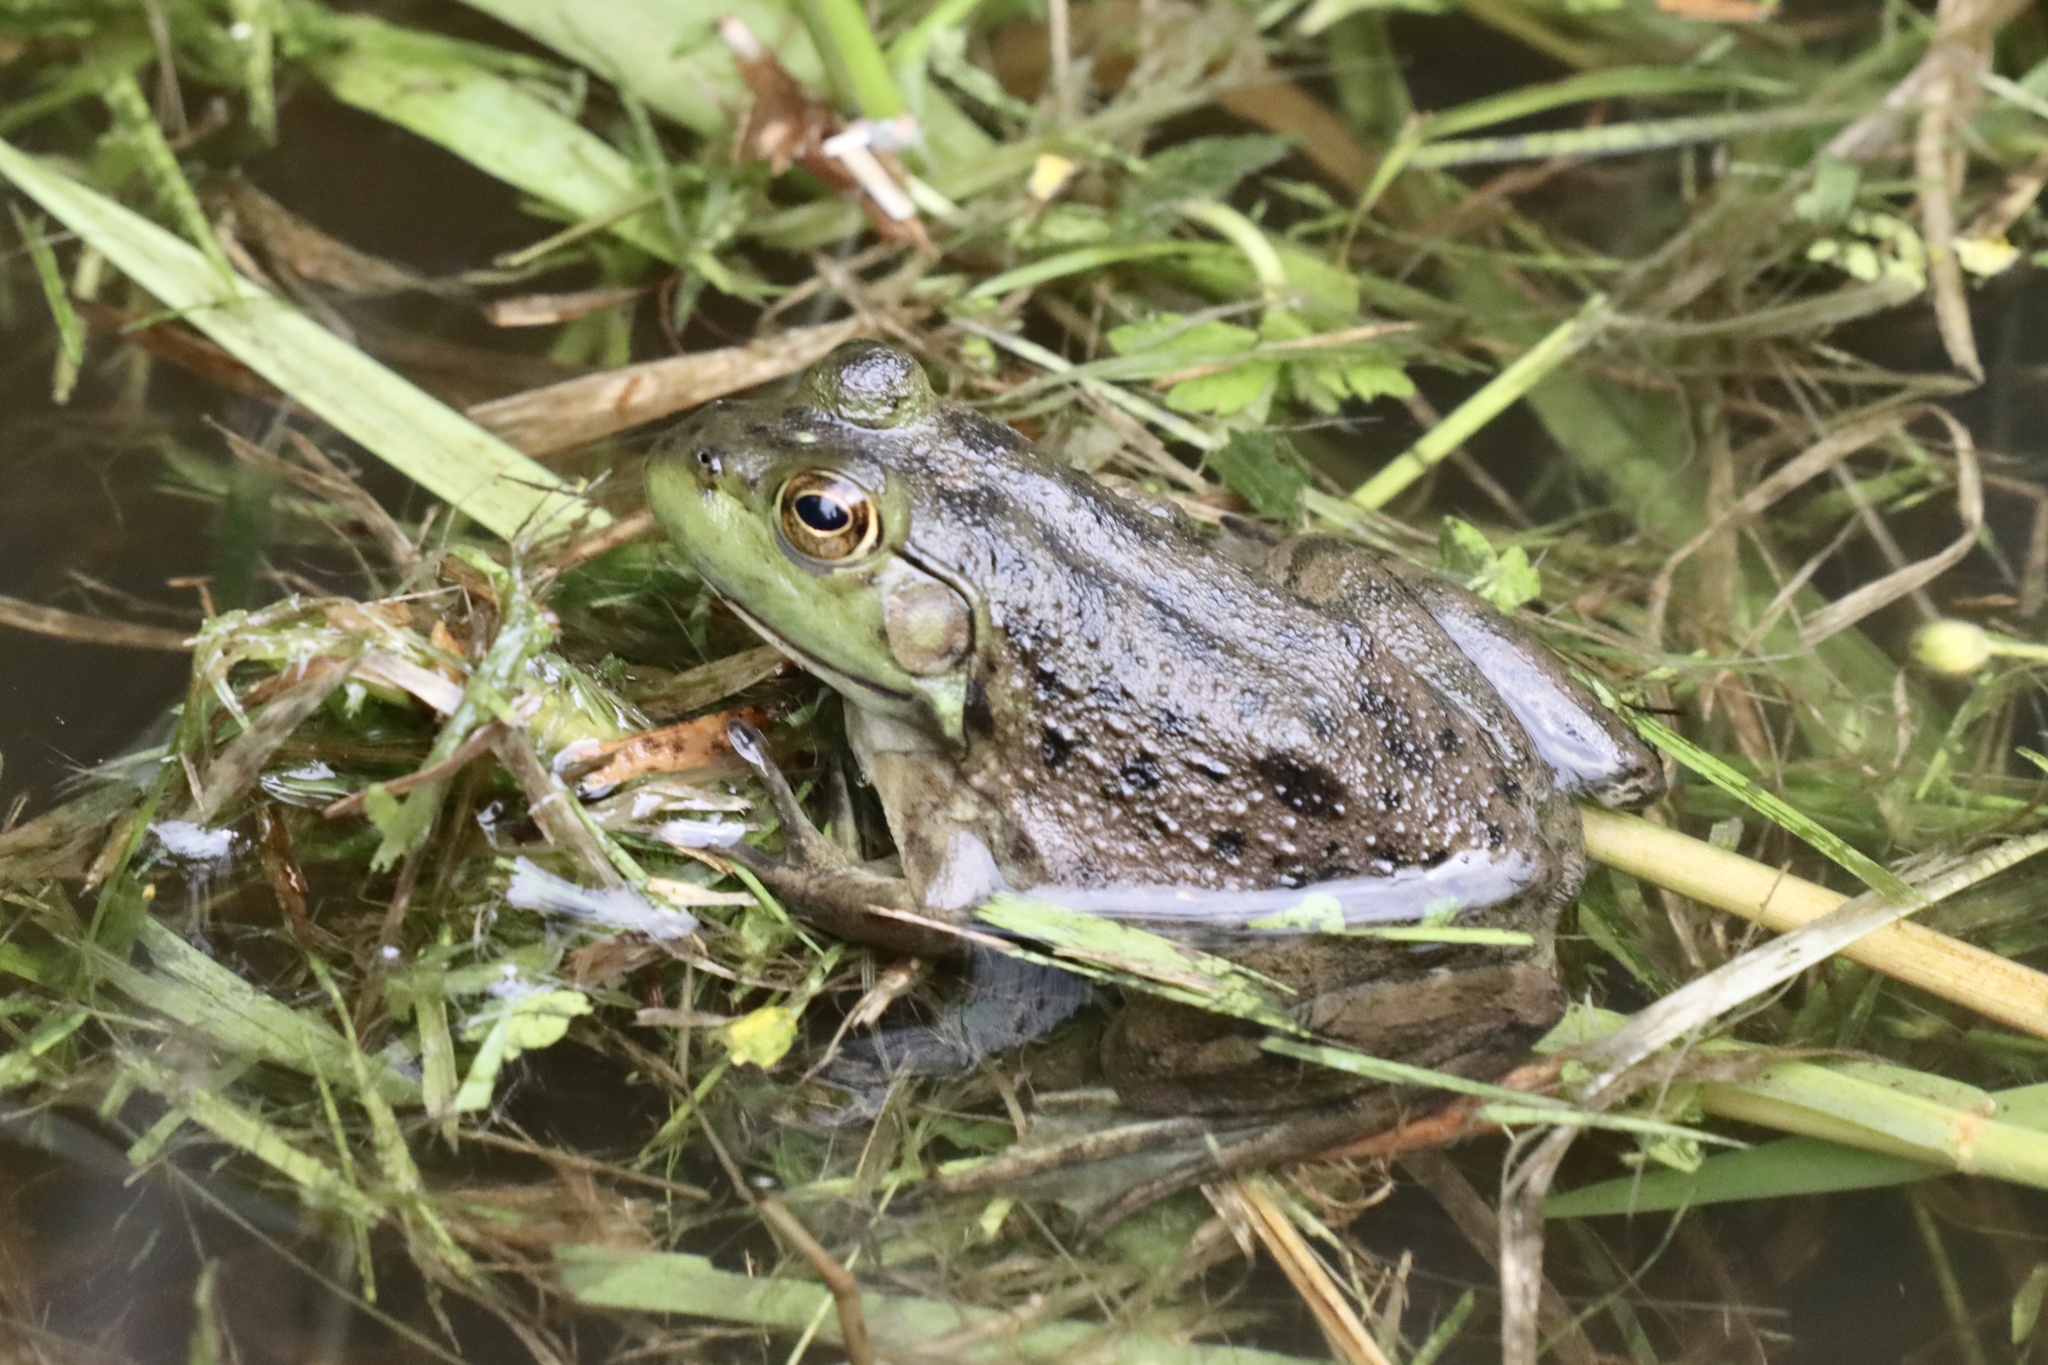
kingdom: Animalia
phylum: Chordata
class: Amphibia
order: Anura
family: Ranidae
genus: Lithobates
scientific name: Lithobates catesbeianus
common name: American bullfrog
